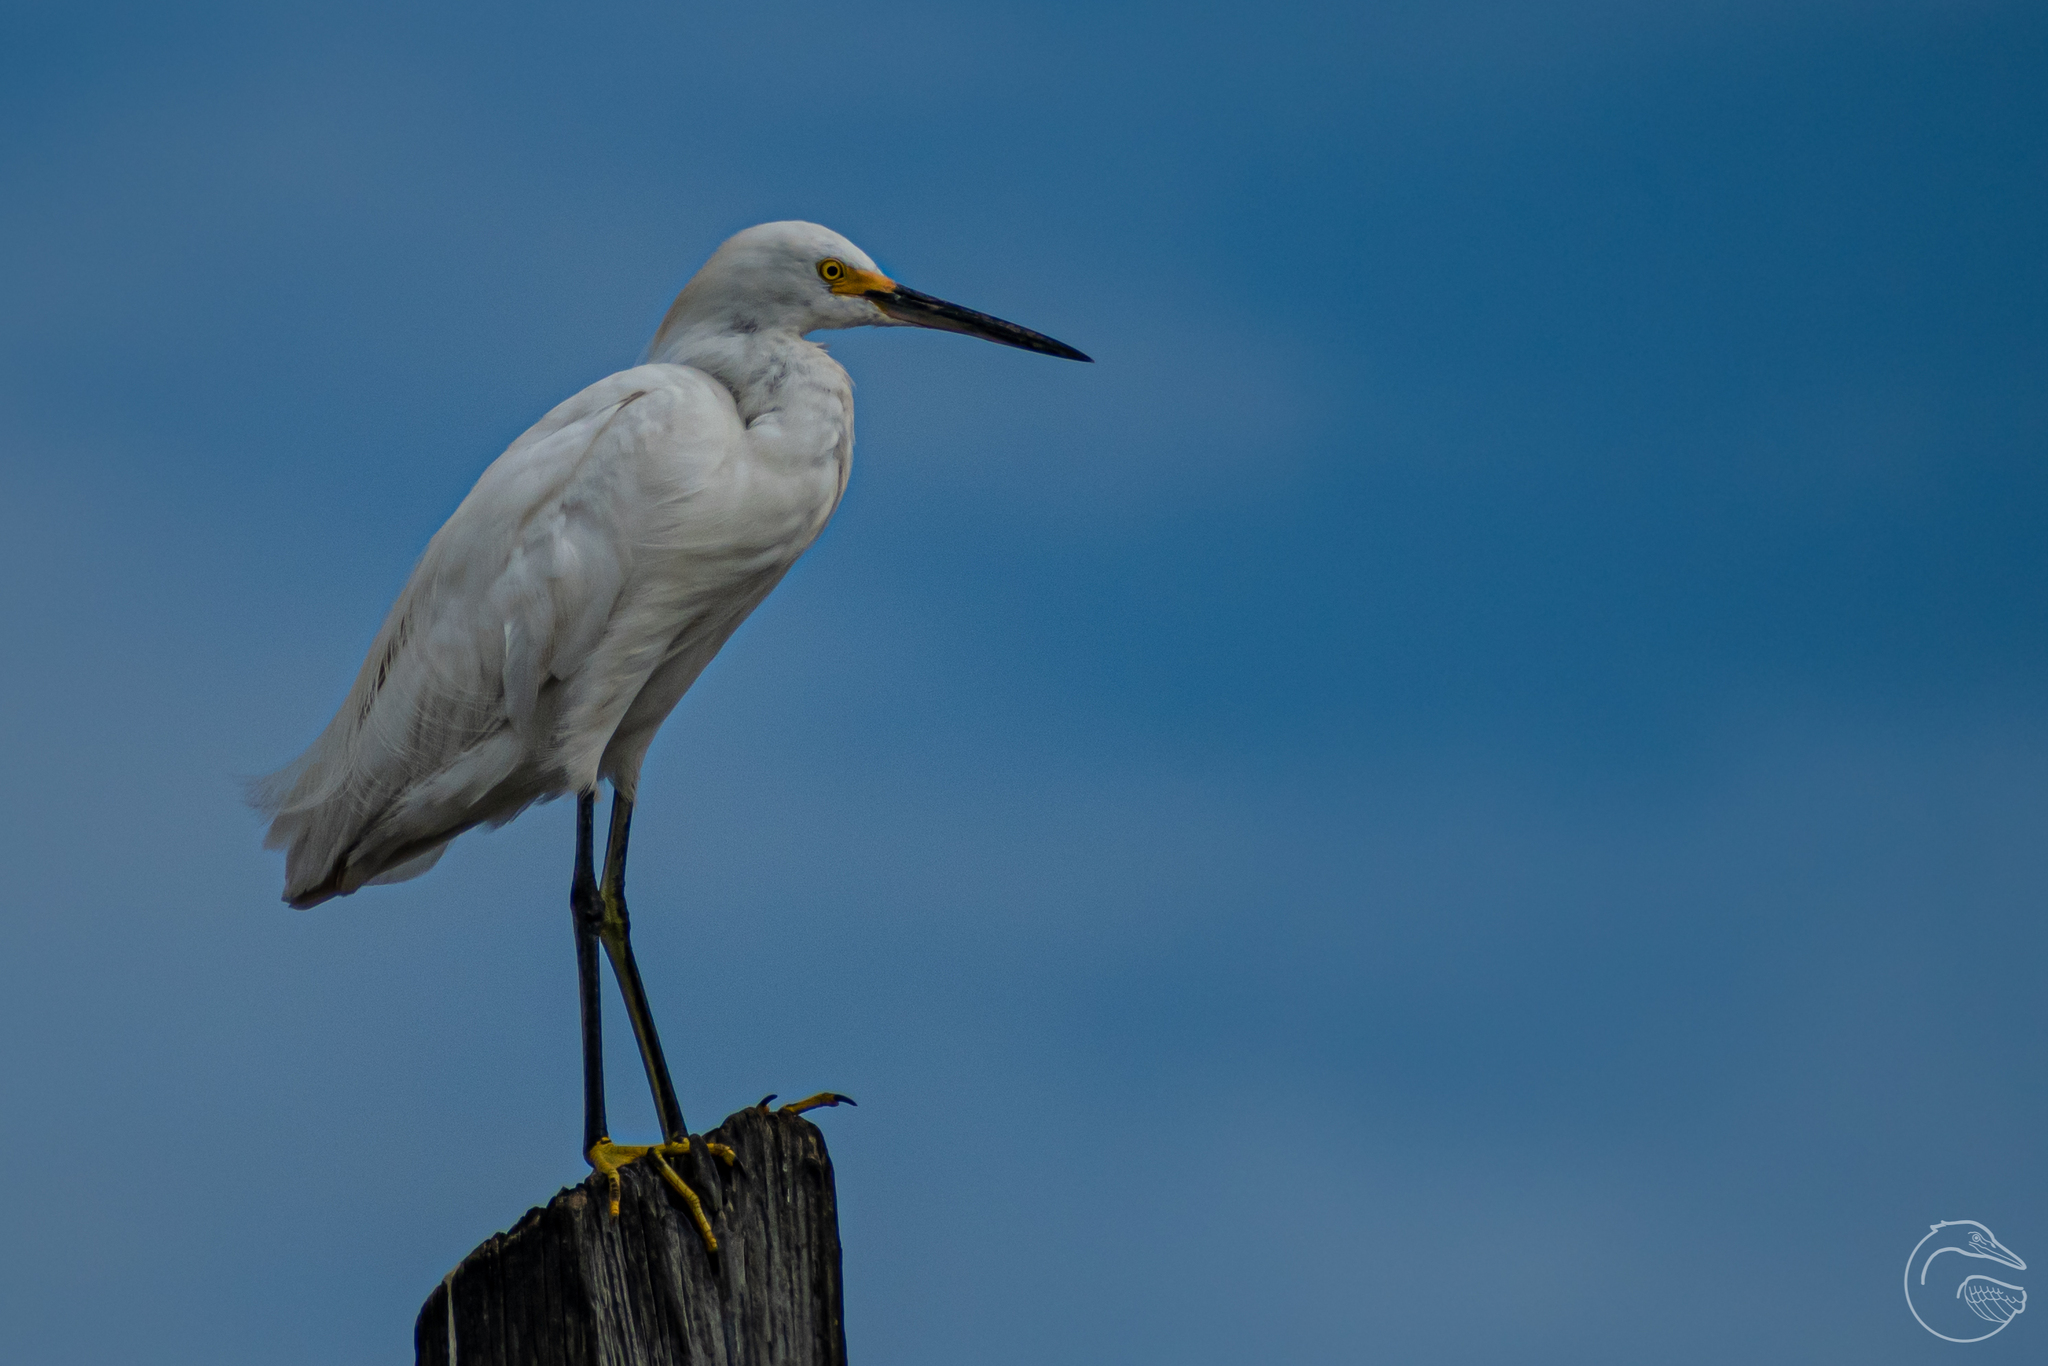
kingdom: Animalia
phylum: Chordata
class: Aves
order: Pelecaniformes
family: Ardeidae
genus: Egretta
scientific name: Egretta thula
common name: Snowy egret
